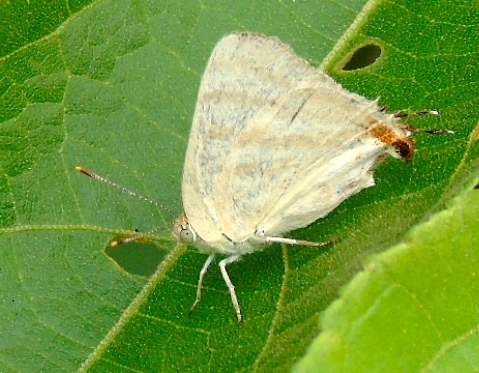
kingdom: Animalia
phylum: Arthropoda
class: Insecta
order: Lepidoptera
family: Lycaenidae
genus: Dolymorpha
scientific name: Dolymorpha jada
